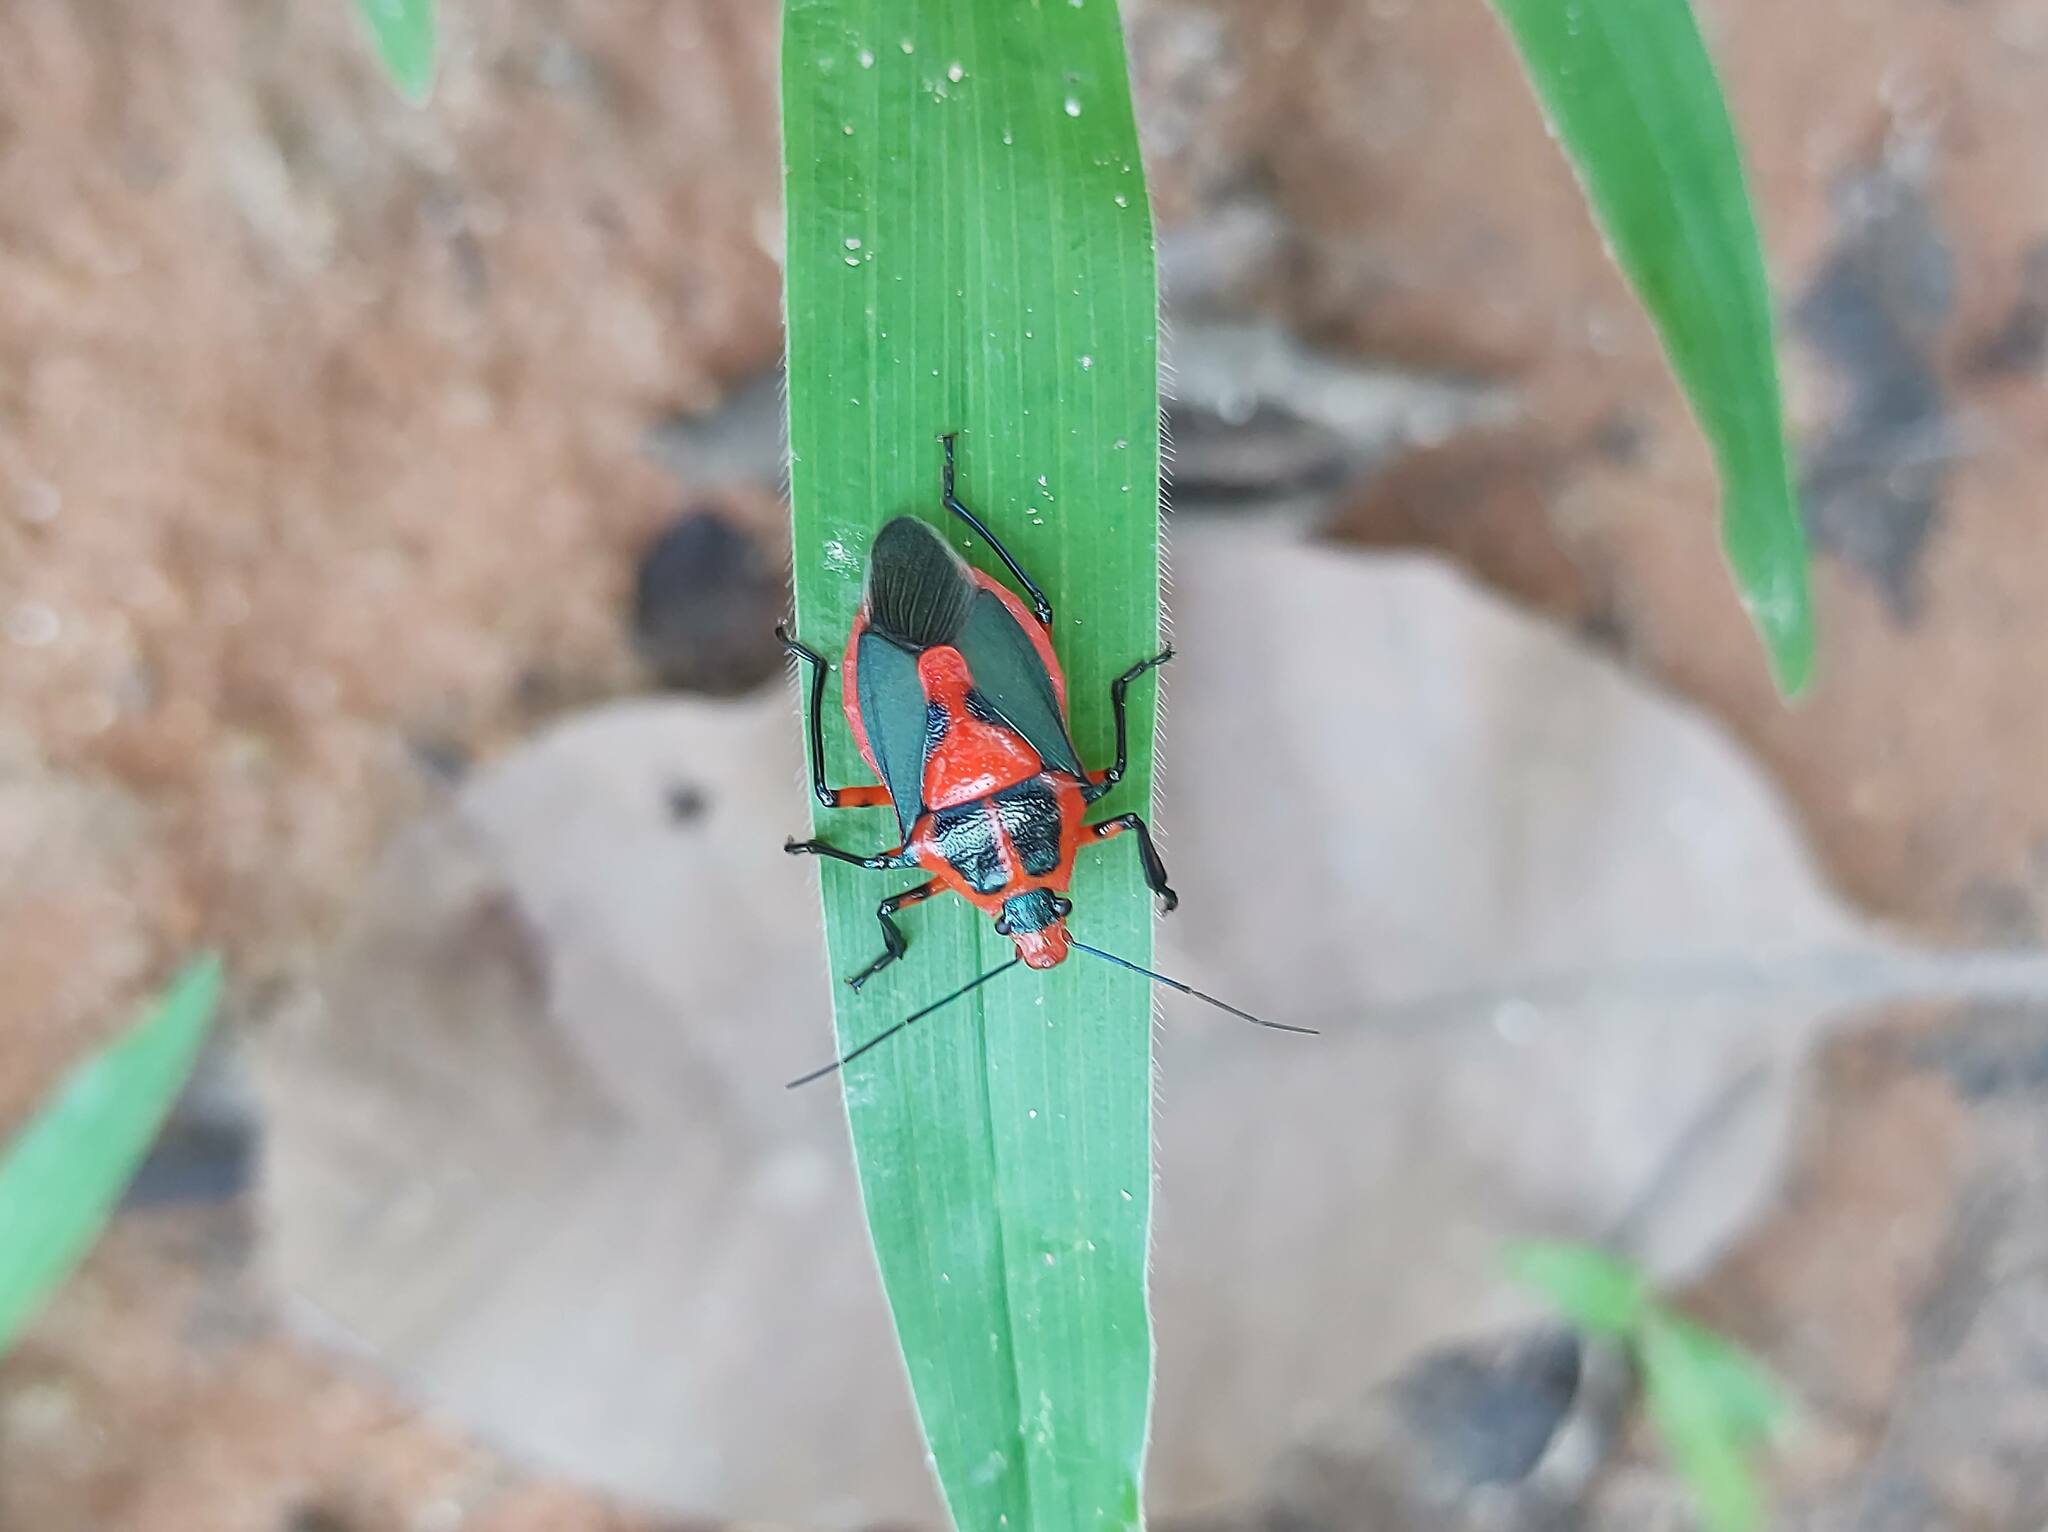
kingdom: Animalia
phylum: Arthropoda
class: Insecta
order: Hemiptera
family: Pentatomidae
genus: Euthyrhynchus
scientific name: Euthyrhynchus floridanus
